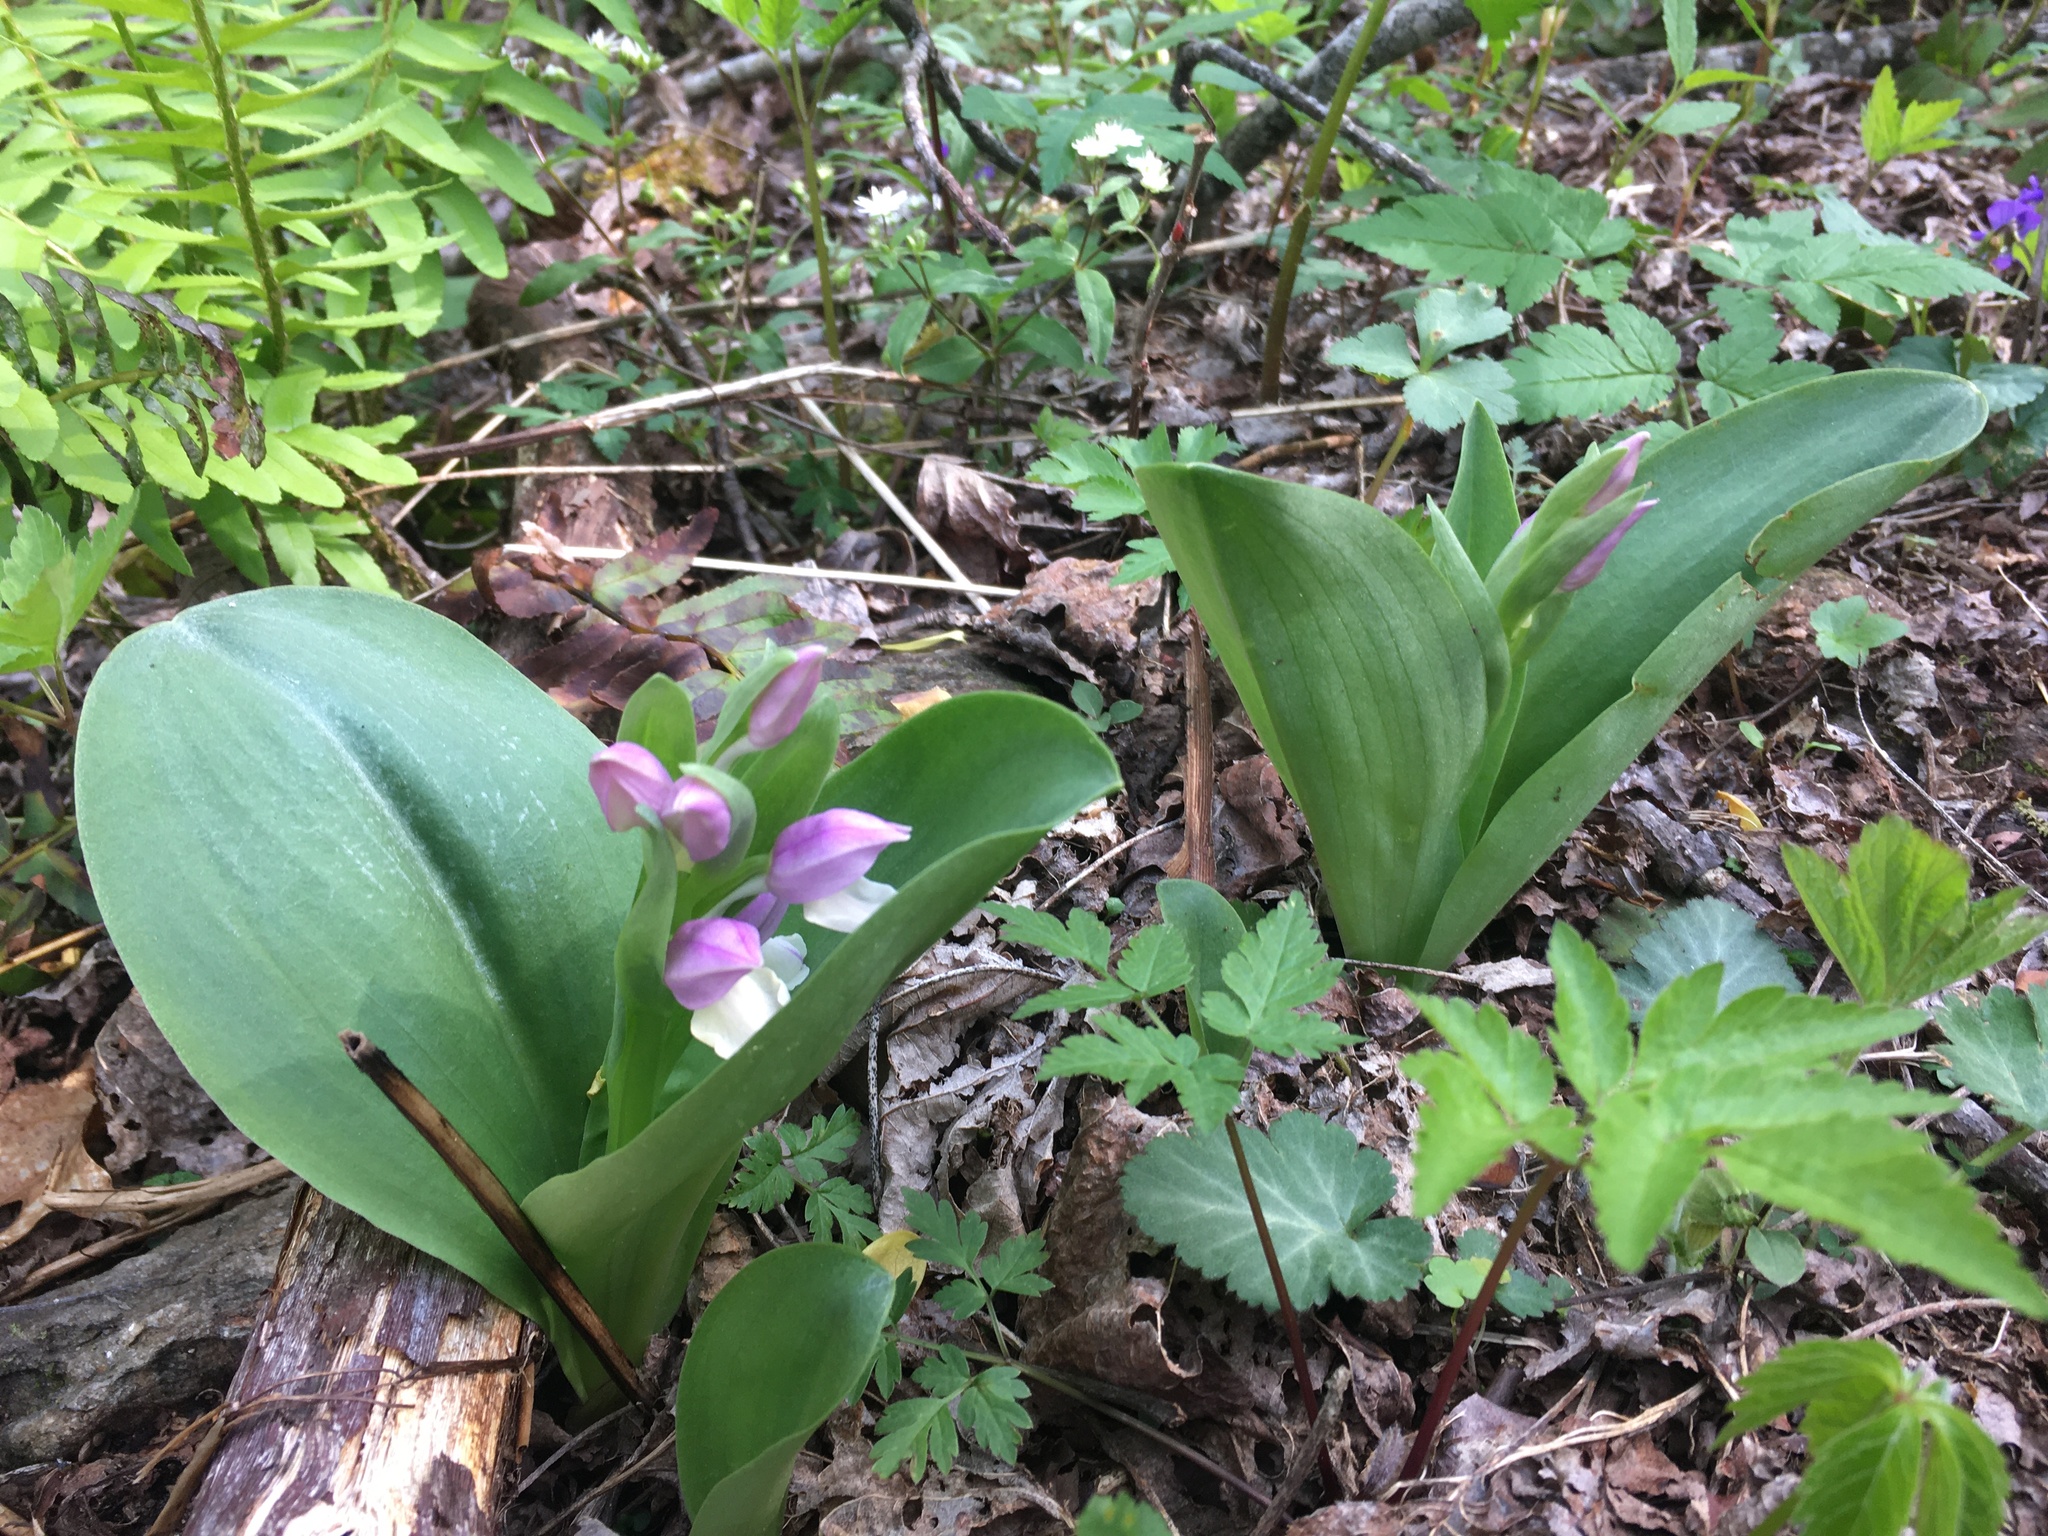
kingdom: Plantae
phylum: Tracheophyta
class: Liliopsida
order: Asparagales
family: Orchidaceae
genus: Galearis
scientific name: Galearis spectabilis
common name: Purple-hooded orchis
